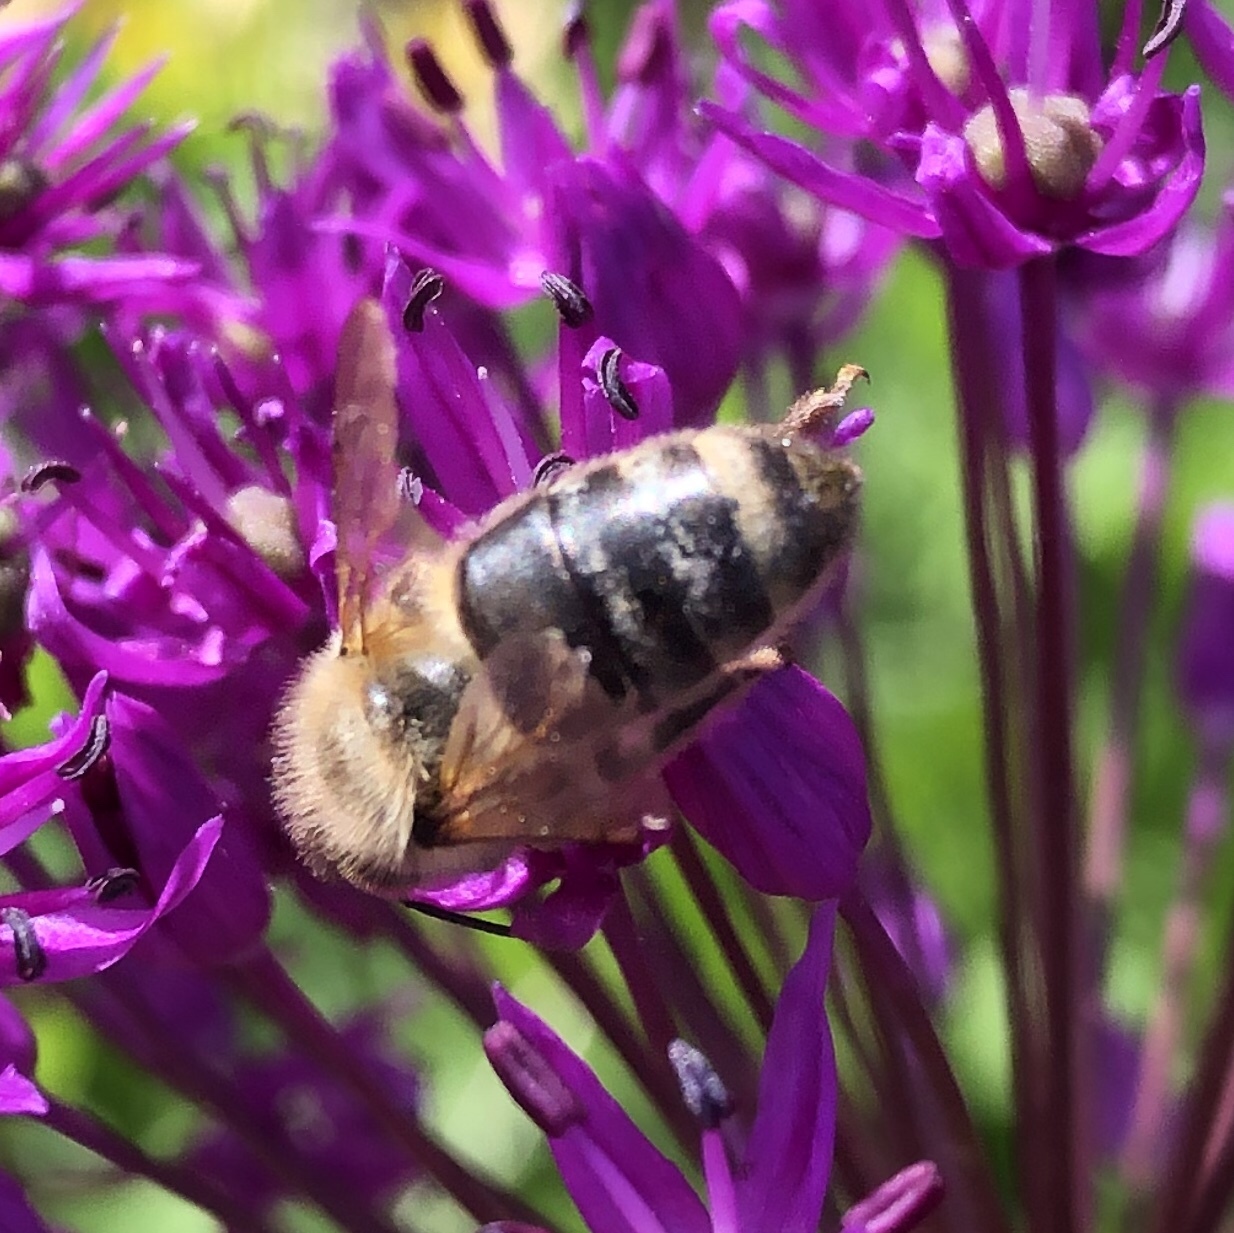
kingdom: Animalia
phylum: Arthropoda
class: Insecta
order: Hymenoptera
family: Apidae
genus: Apis
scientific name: Apis mellifera
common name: Honey bee
